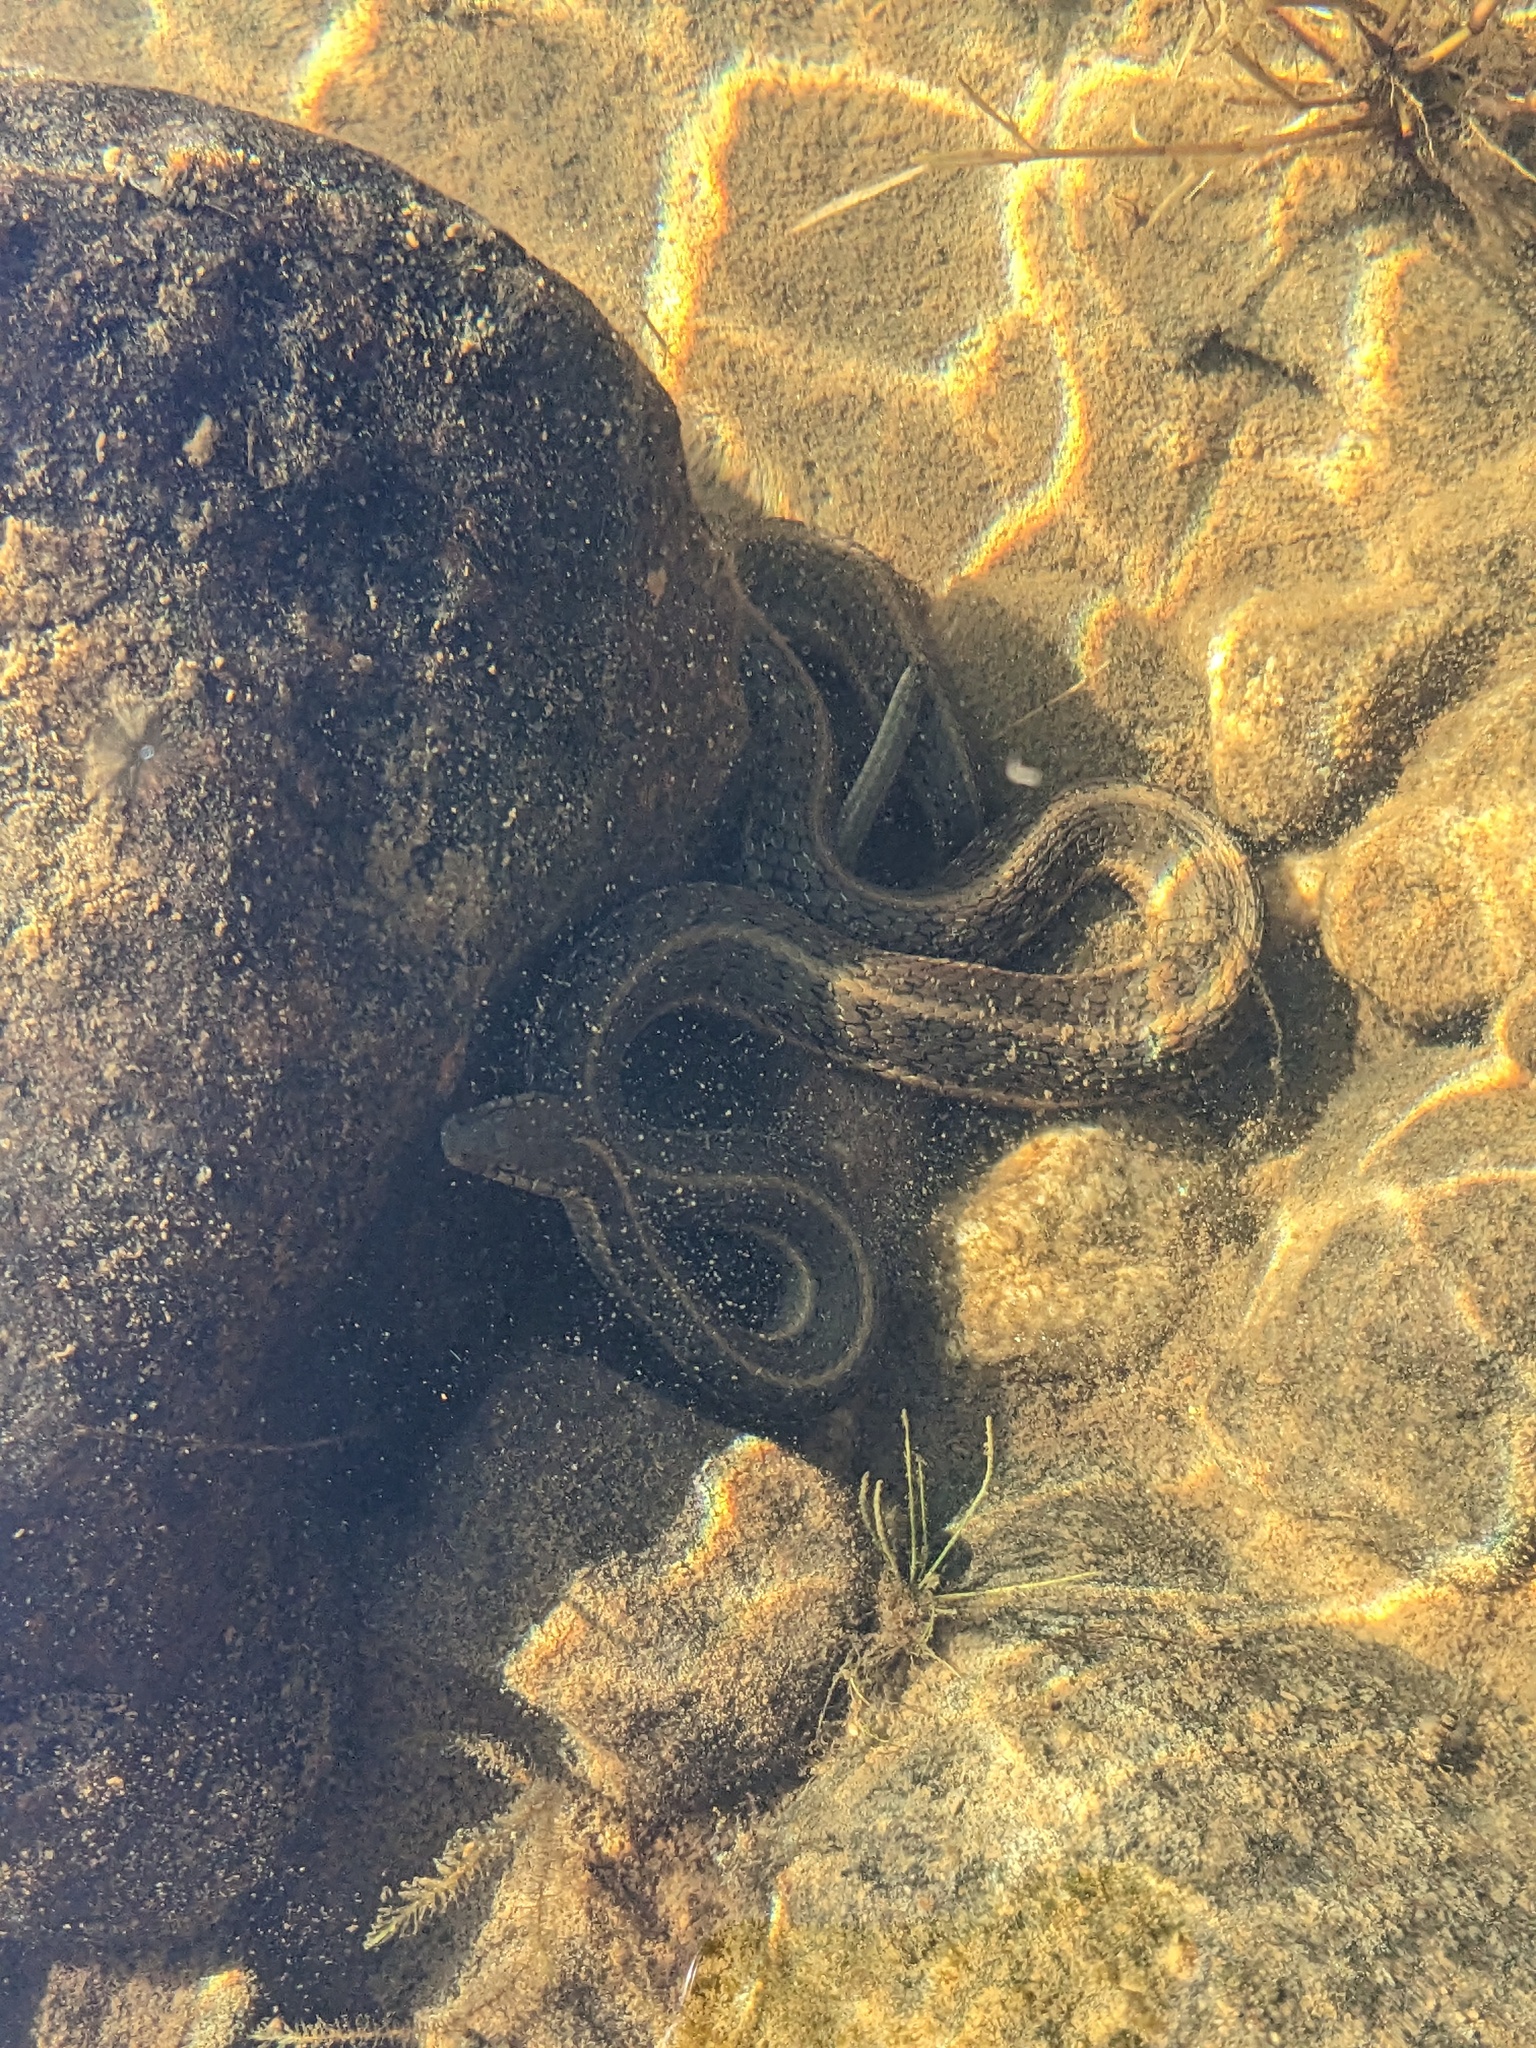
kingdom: Animalia
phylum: Chordata
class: Squamata
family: Colubridae
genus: Thamnophis
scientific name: Thamnophis atratus
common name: Pacific coast aquatic garter snake
